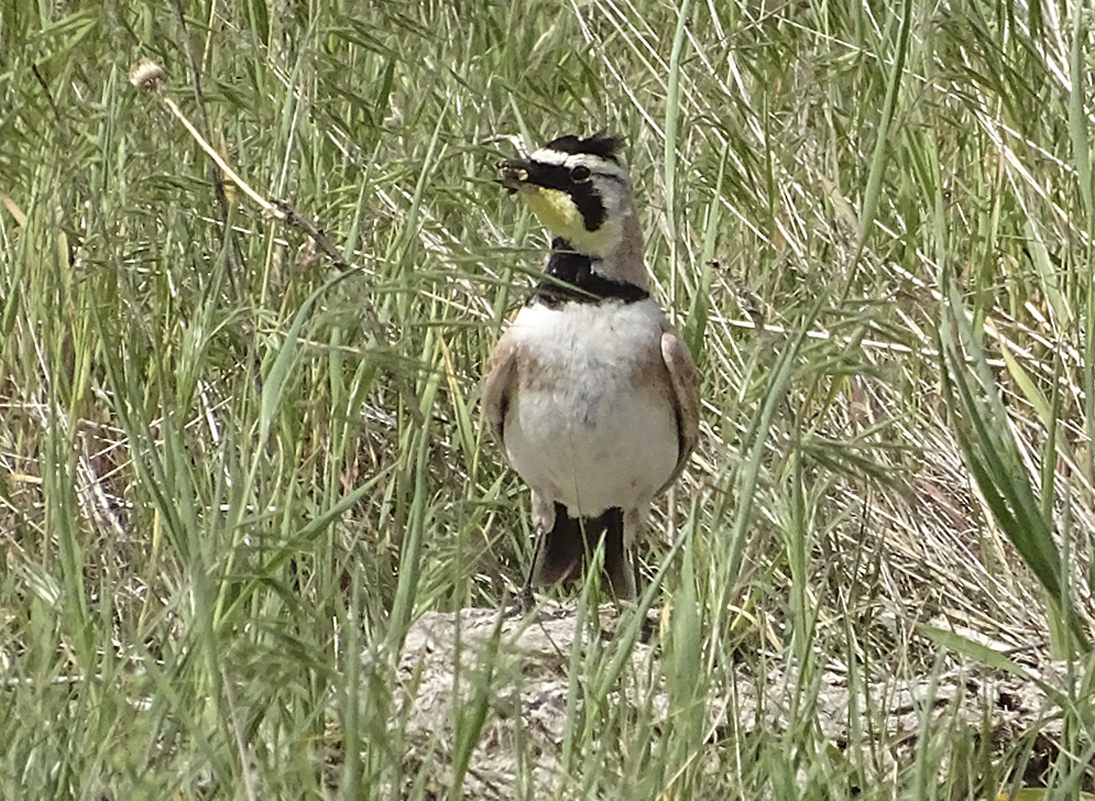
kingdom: Animalia
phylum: Chordata
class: Aves
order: Passeriformes
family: Alaudidae
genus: Eremophila
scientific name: Eremophila alpestris
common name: Horned lark
